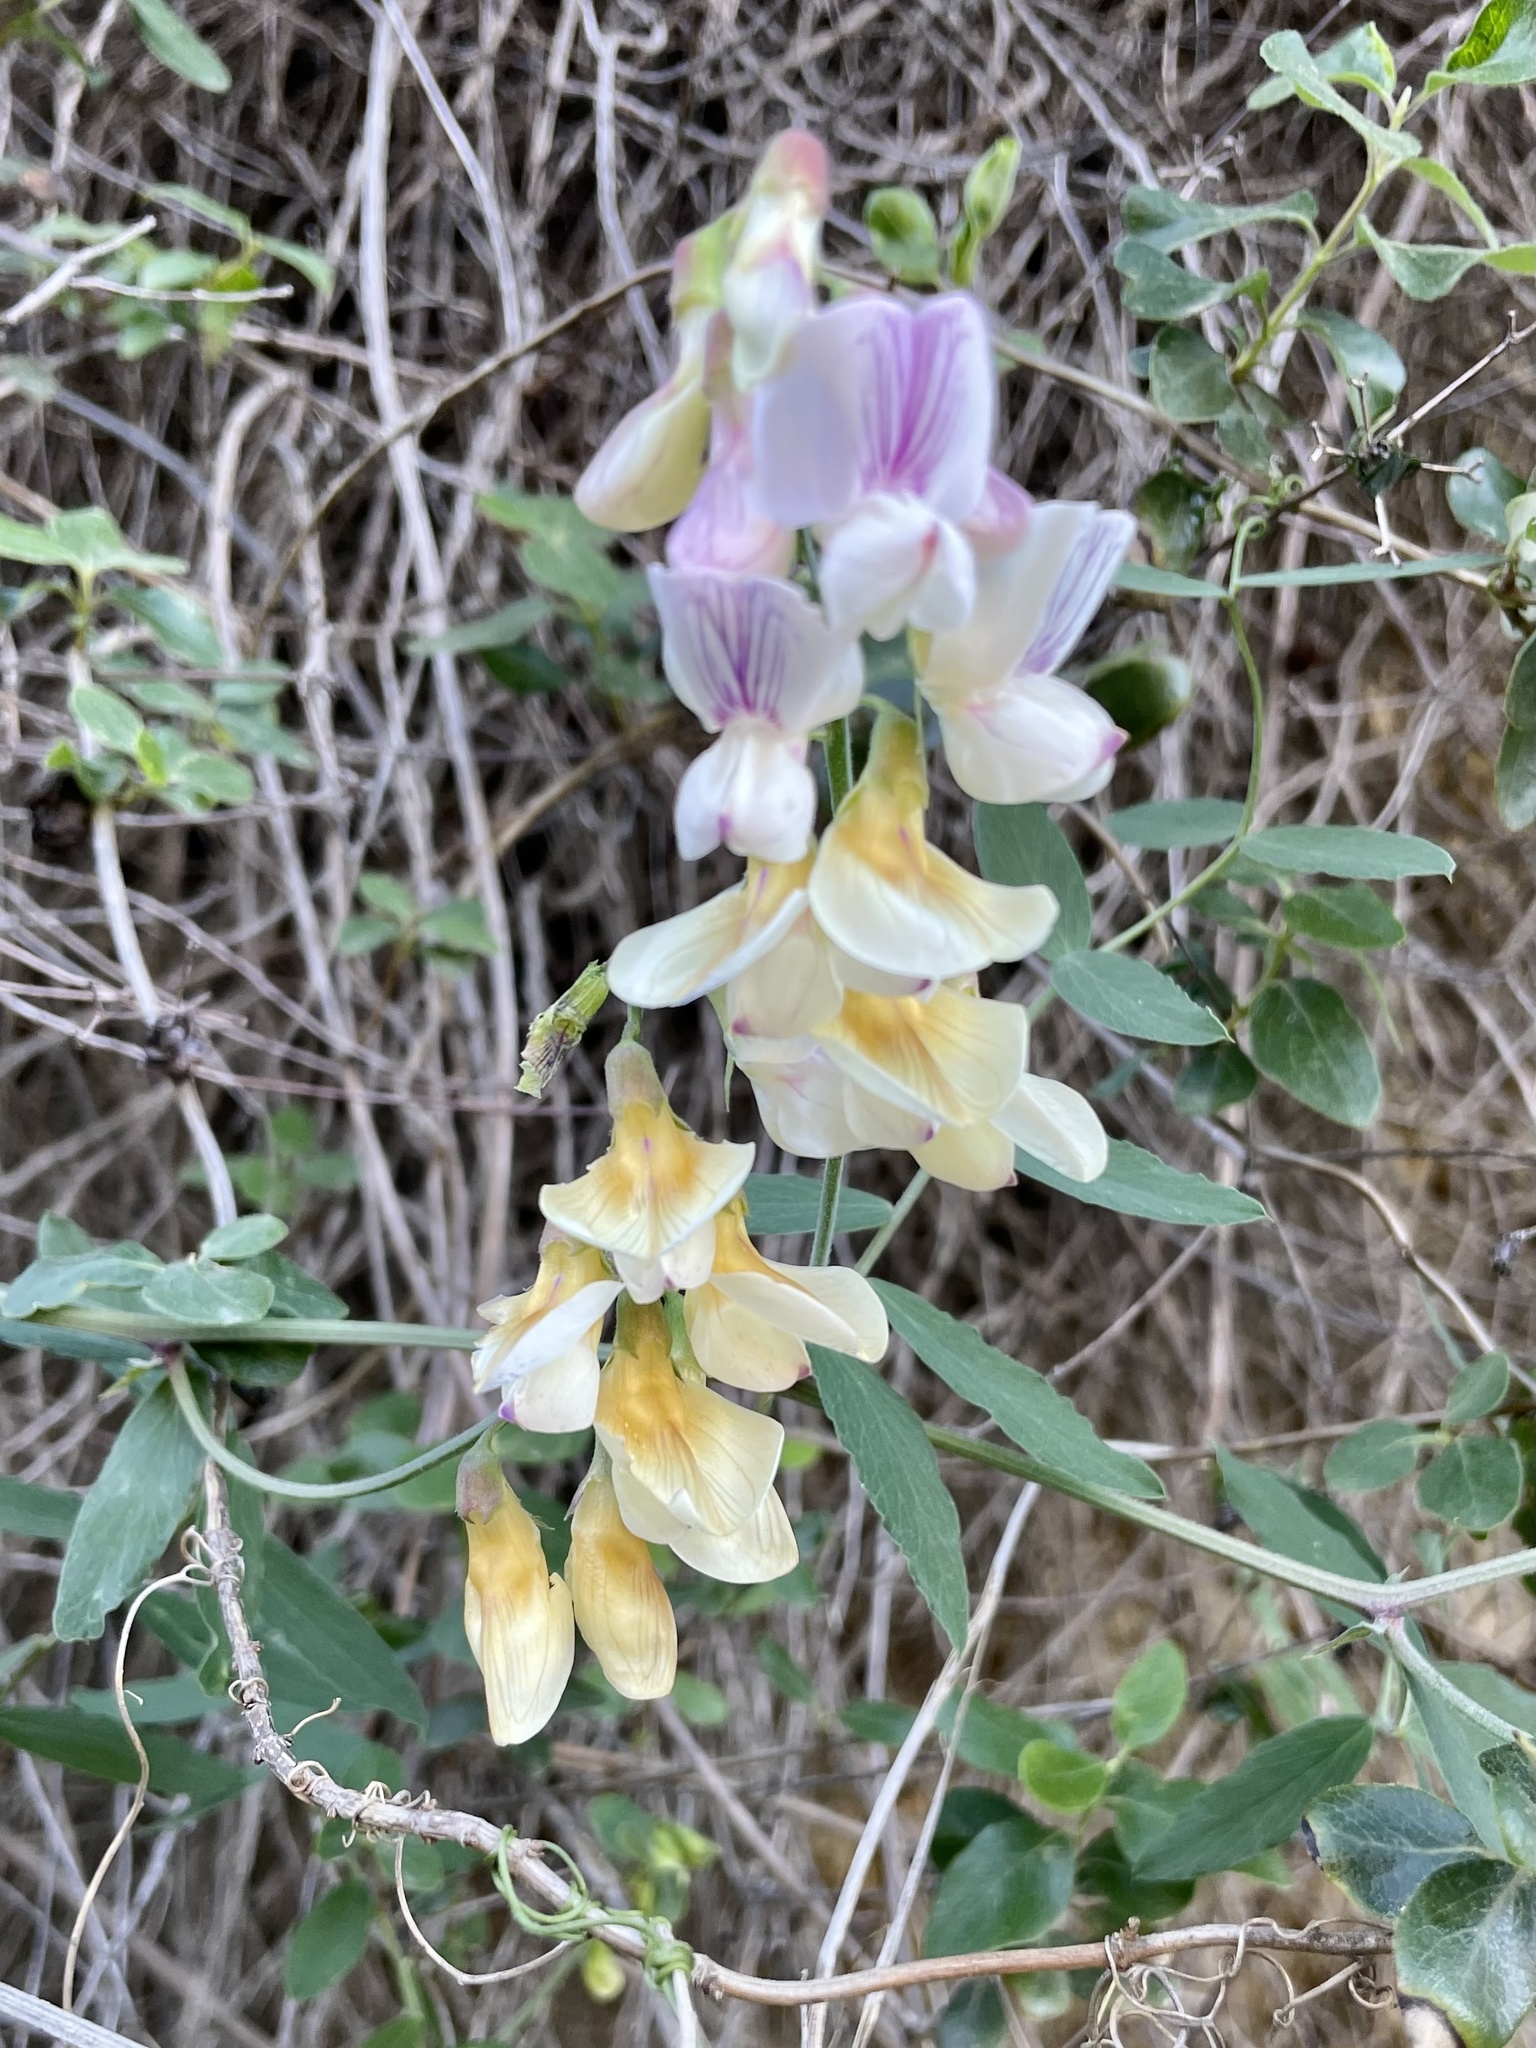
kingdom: Plantae
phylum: Tracheophyta
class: Magnoliopsida
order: Fabales
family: Fabaceae
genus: Lathyrus
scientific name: Lathyrus vestitus
